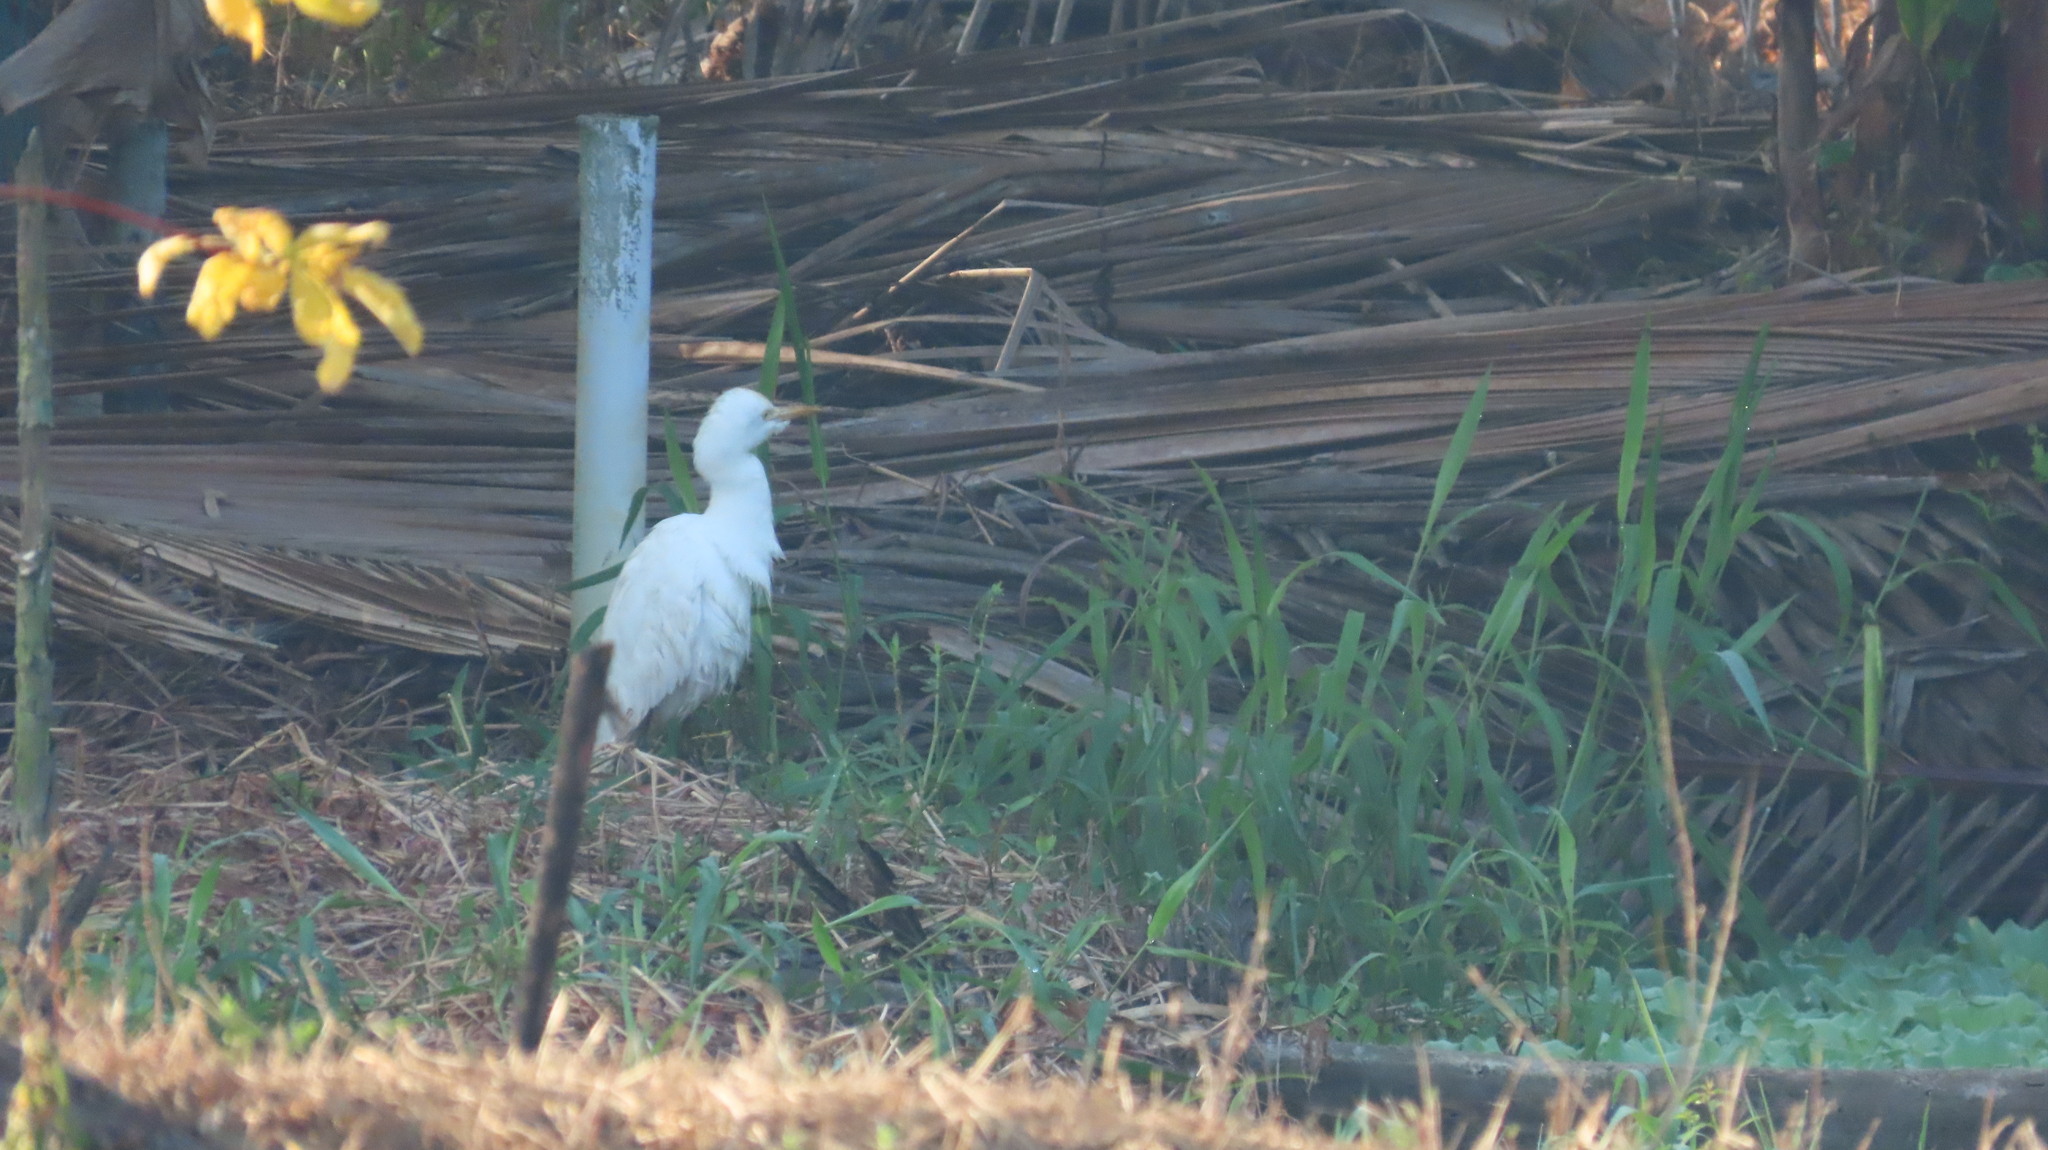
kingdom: Animalia
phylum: Chordata
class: Aves
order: Pelecaniformes
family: Ardeidae
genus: Bubulcus
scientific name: Bubulcus coromandus
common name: Eastern cattle egret
